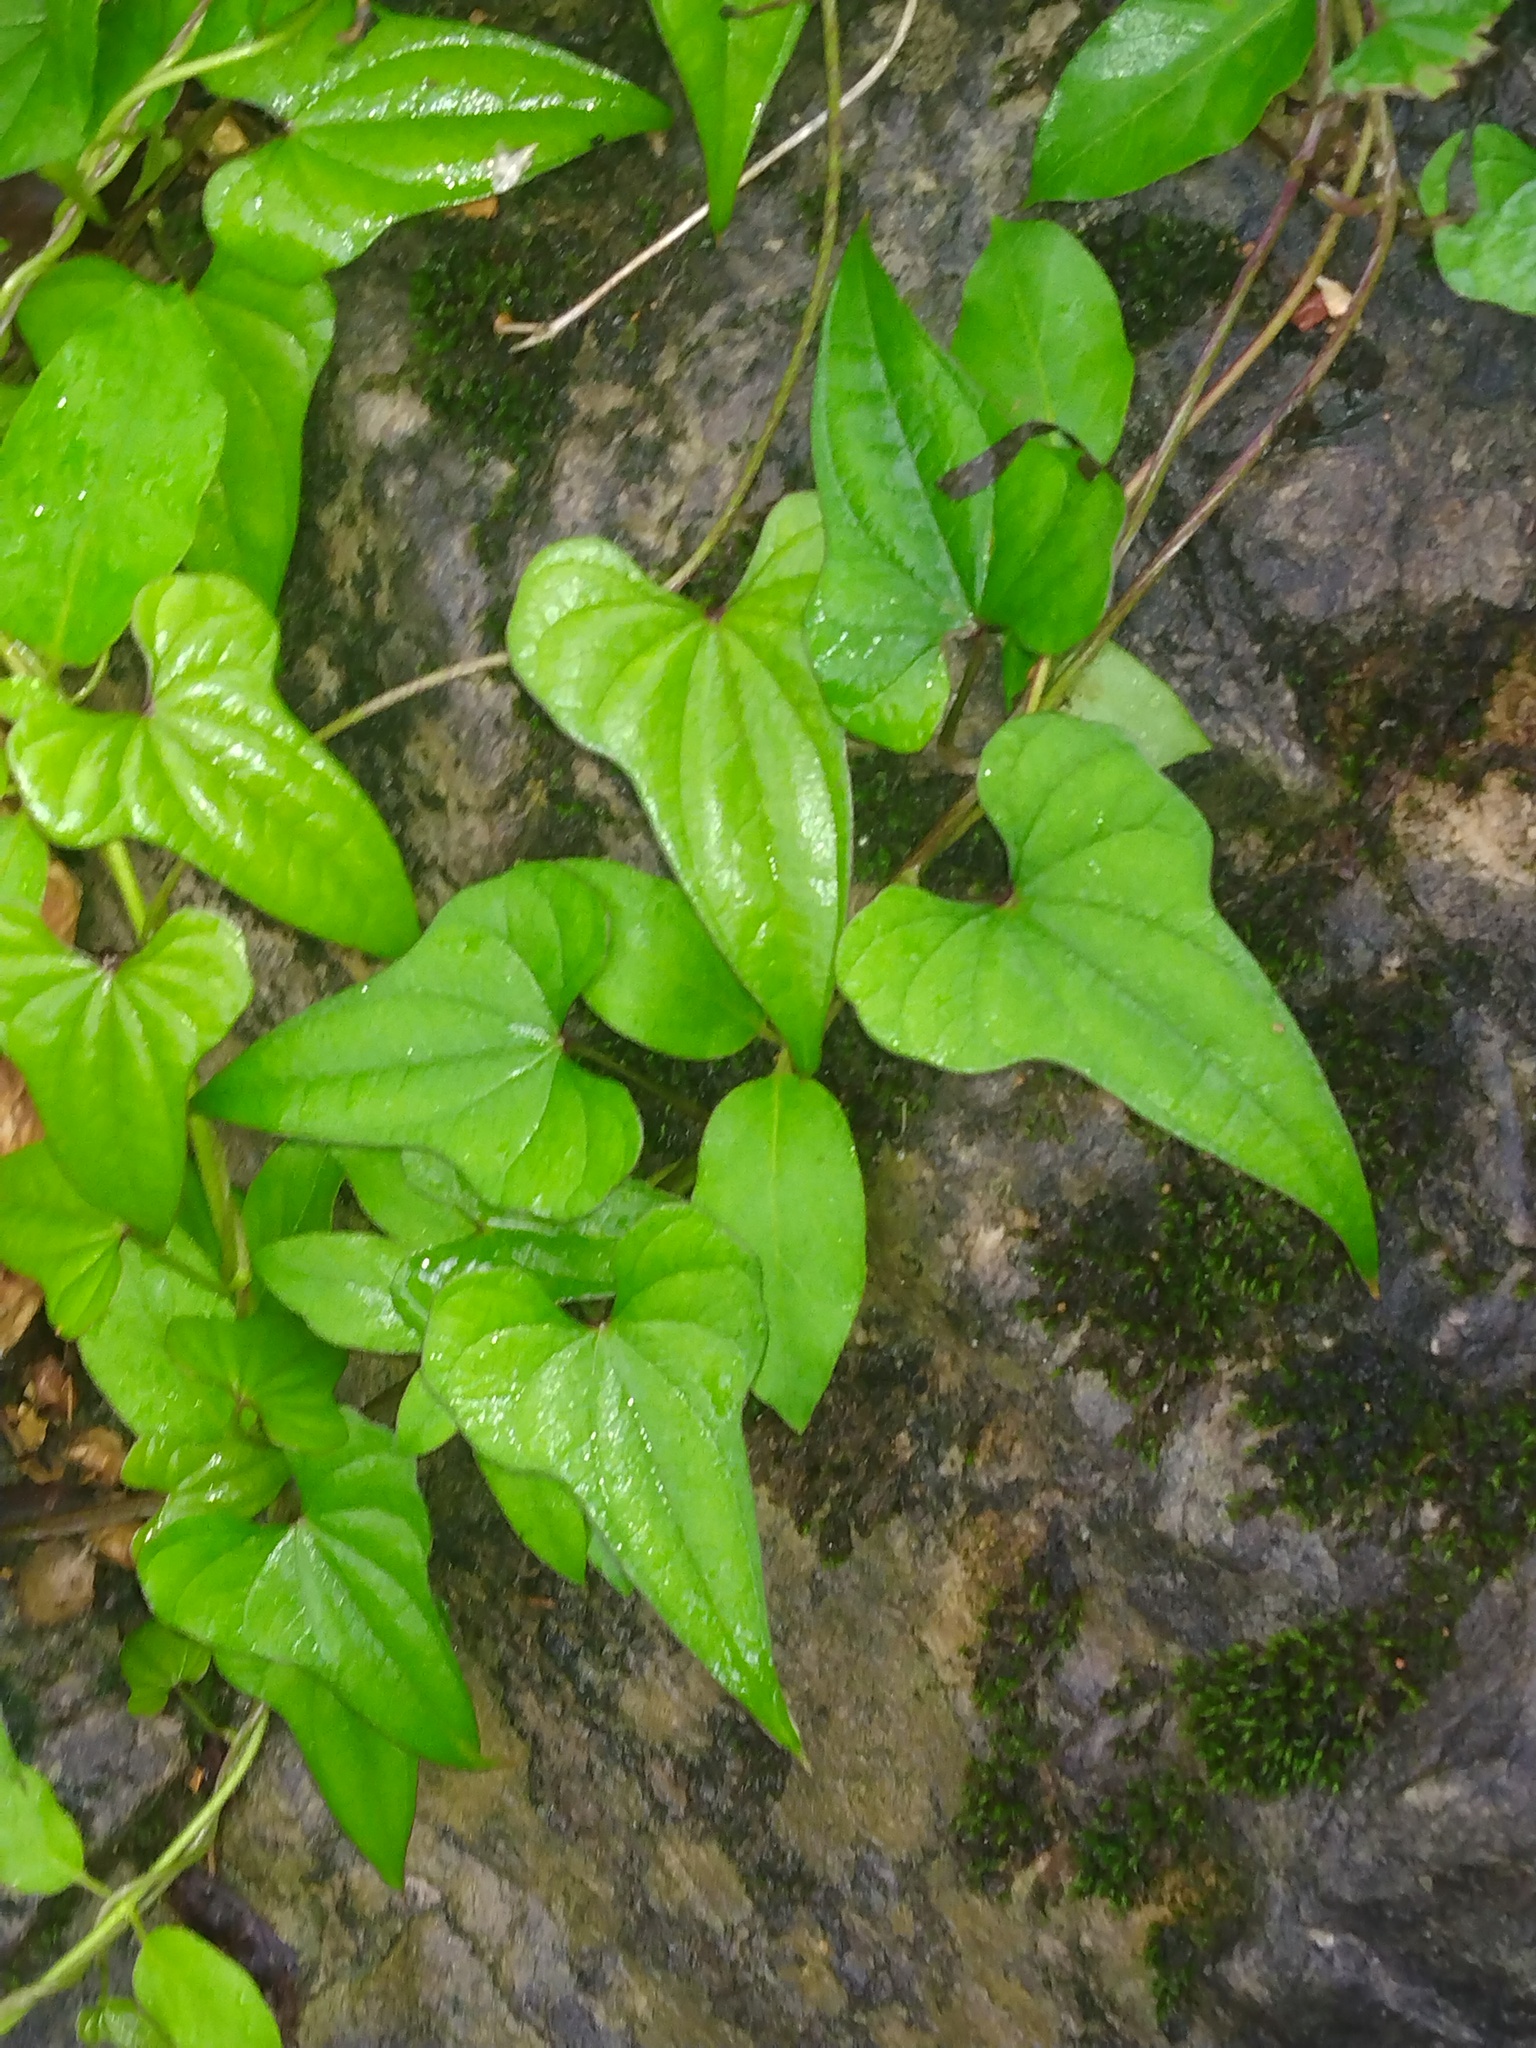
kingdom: Plantae
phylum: Tracheophyta
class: Liliopsida
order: Dioscoreales
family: Dioscoreaceae
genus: Dioscorea
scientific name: Dioscorea polystachya
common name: Chinese yam
